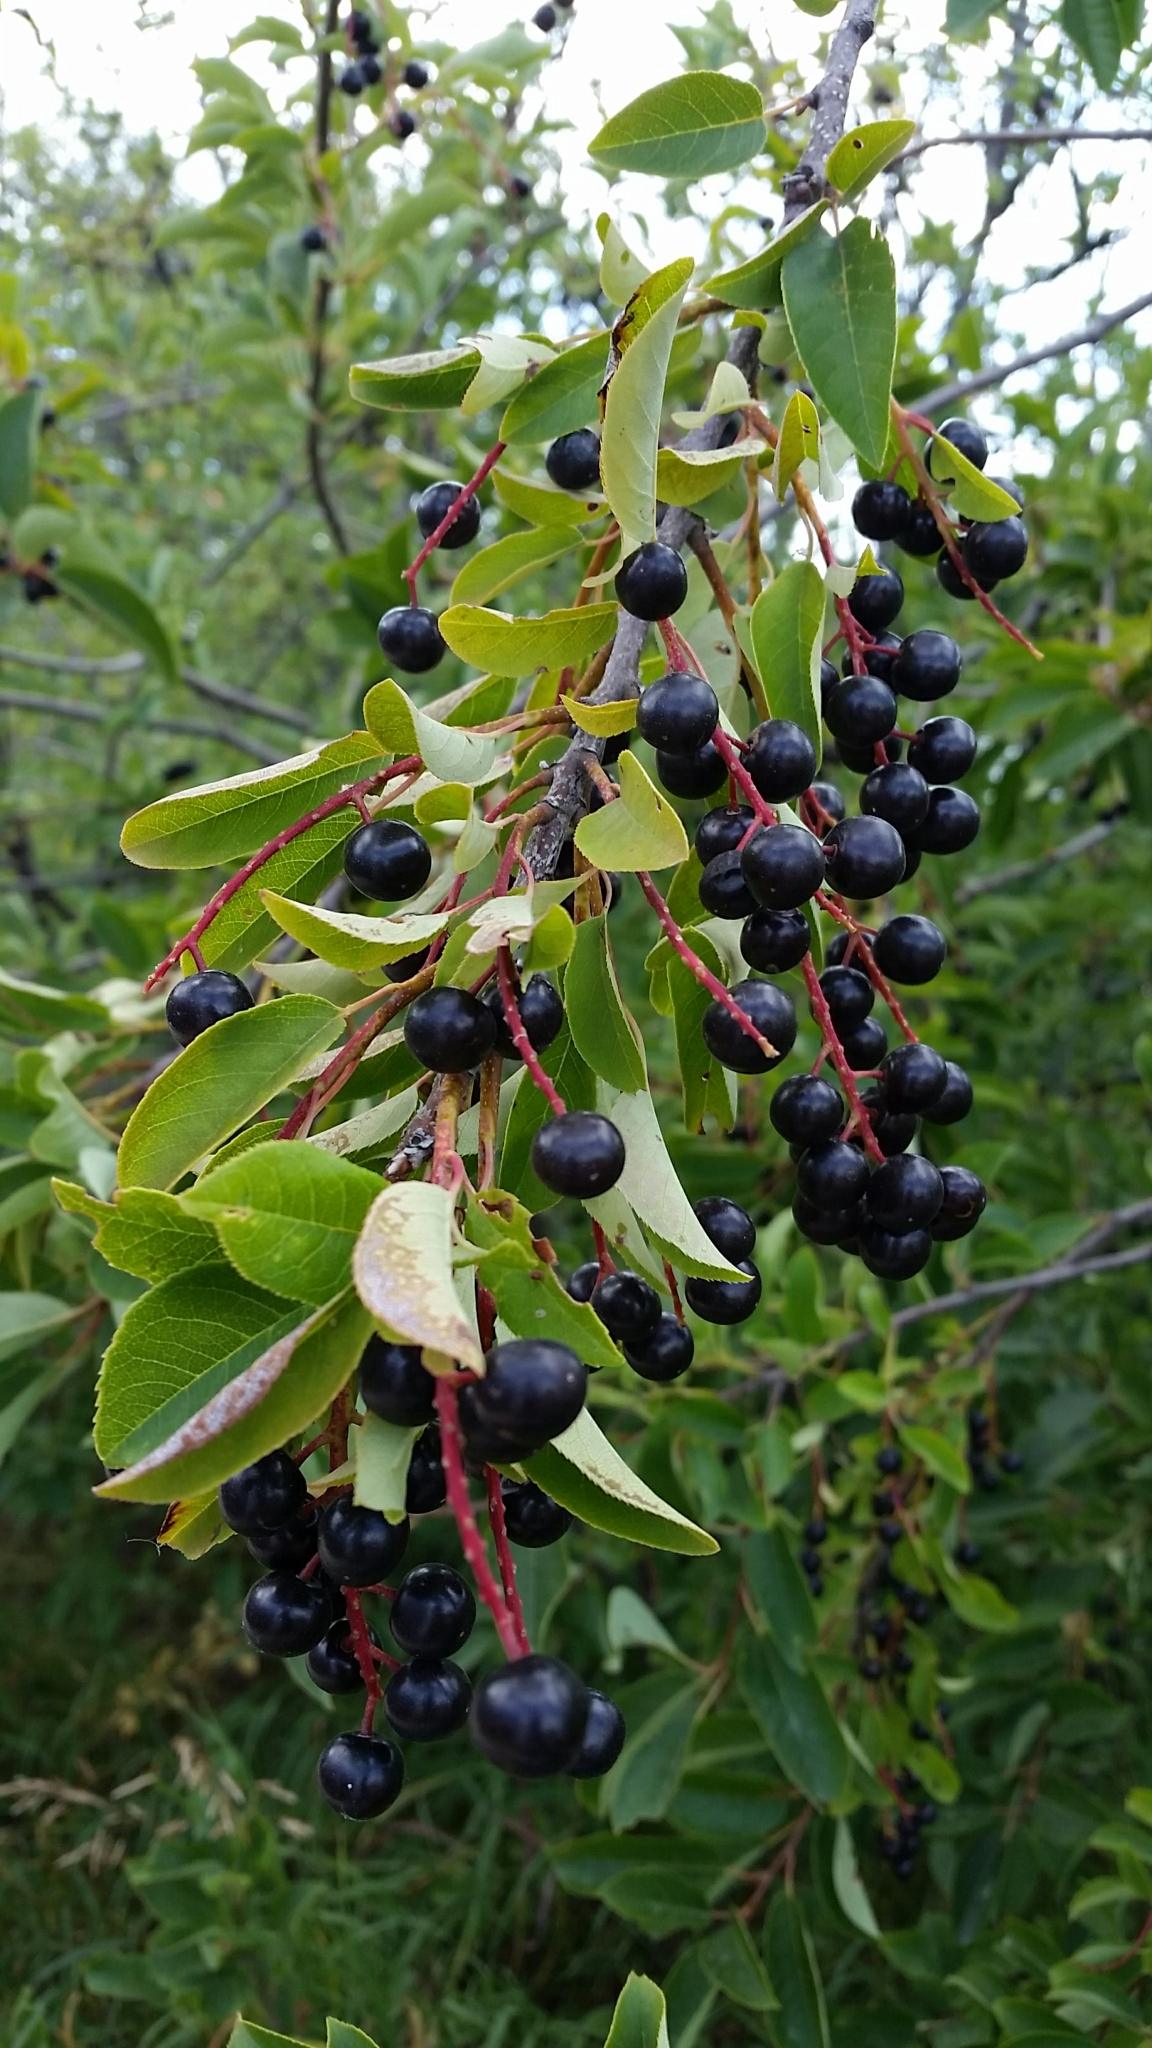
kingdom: Plantae
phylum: Tracheophyta
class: Magnoliopsida
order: Rosales
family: Rosaceae
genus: Prunus
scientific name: Prunus virginiana
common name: Chokecherry
